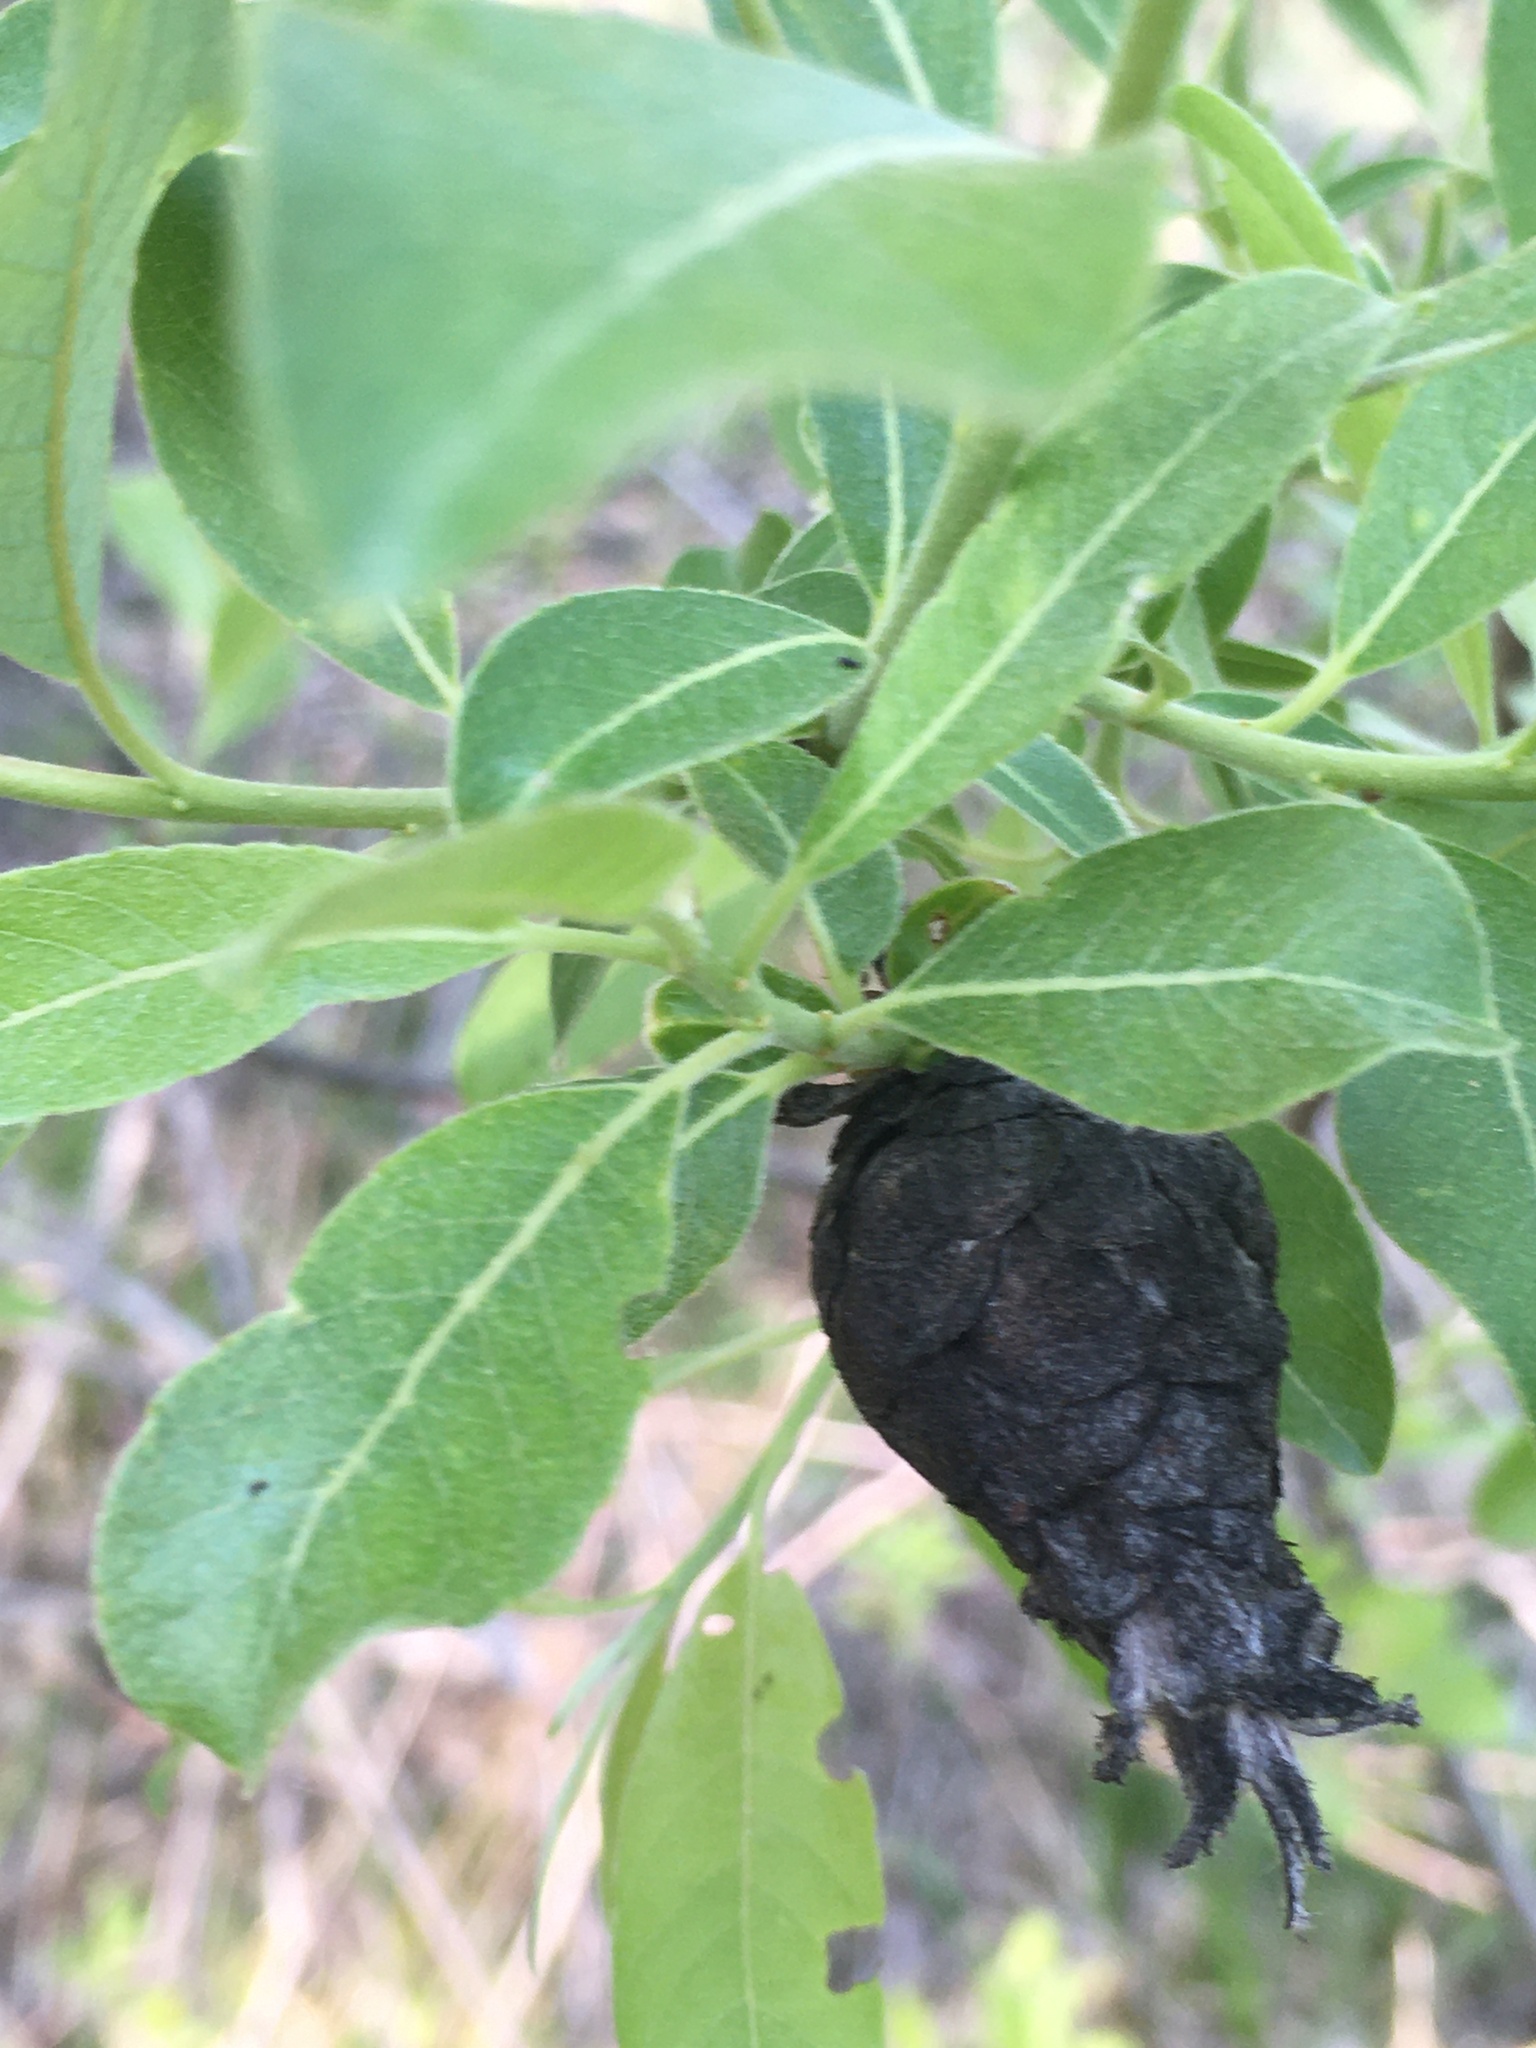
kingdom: Animalia
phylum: Arthropoda
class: Insecta
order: Diptera
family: Cecidomyiidae
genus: Rabdophaga
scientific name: Rabdophaga strobiloides
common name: Willow pinecone gall midge
